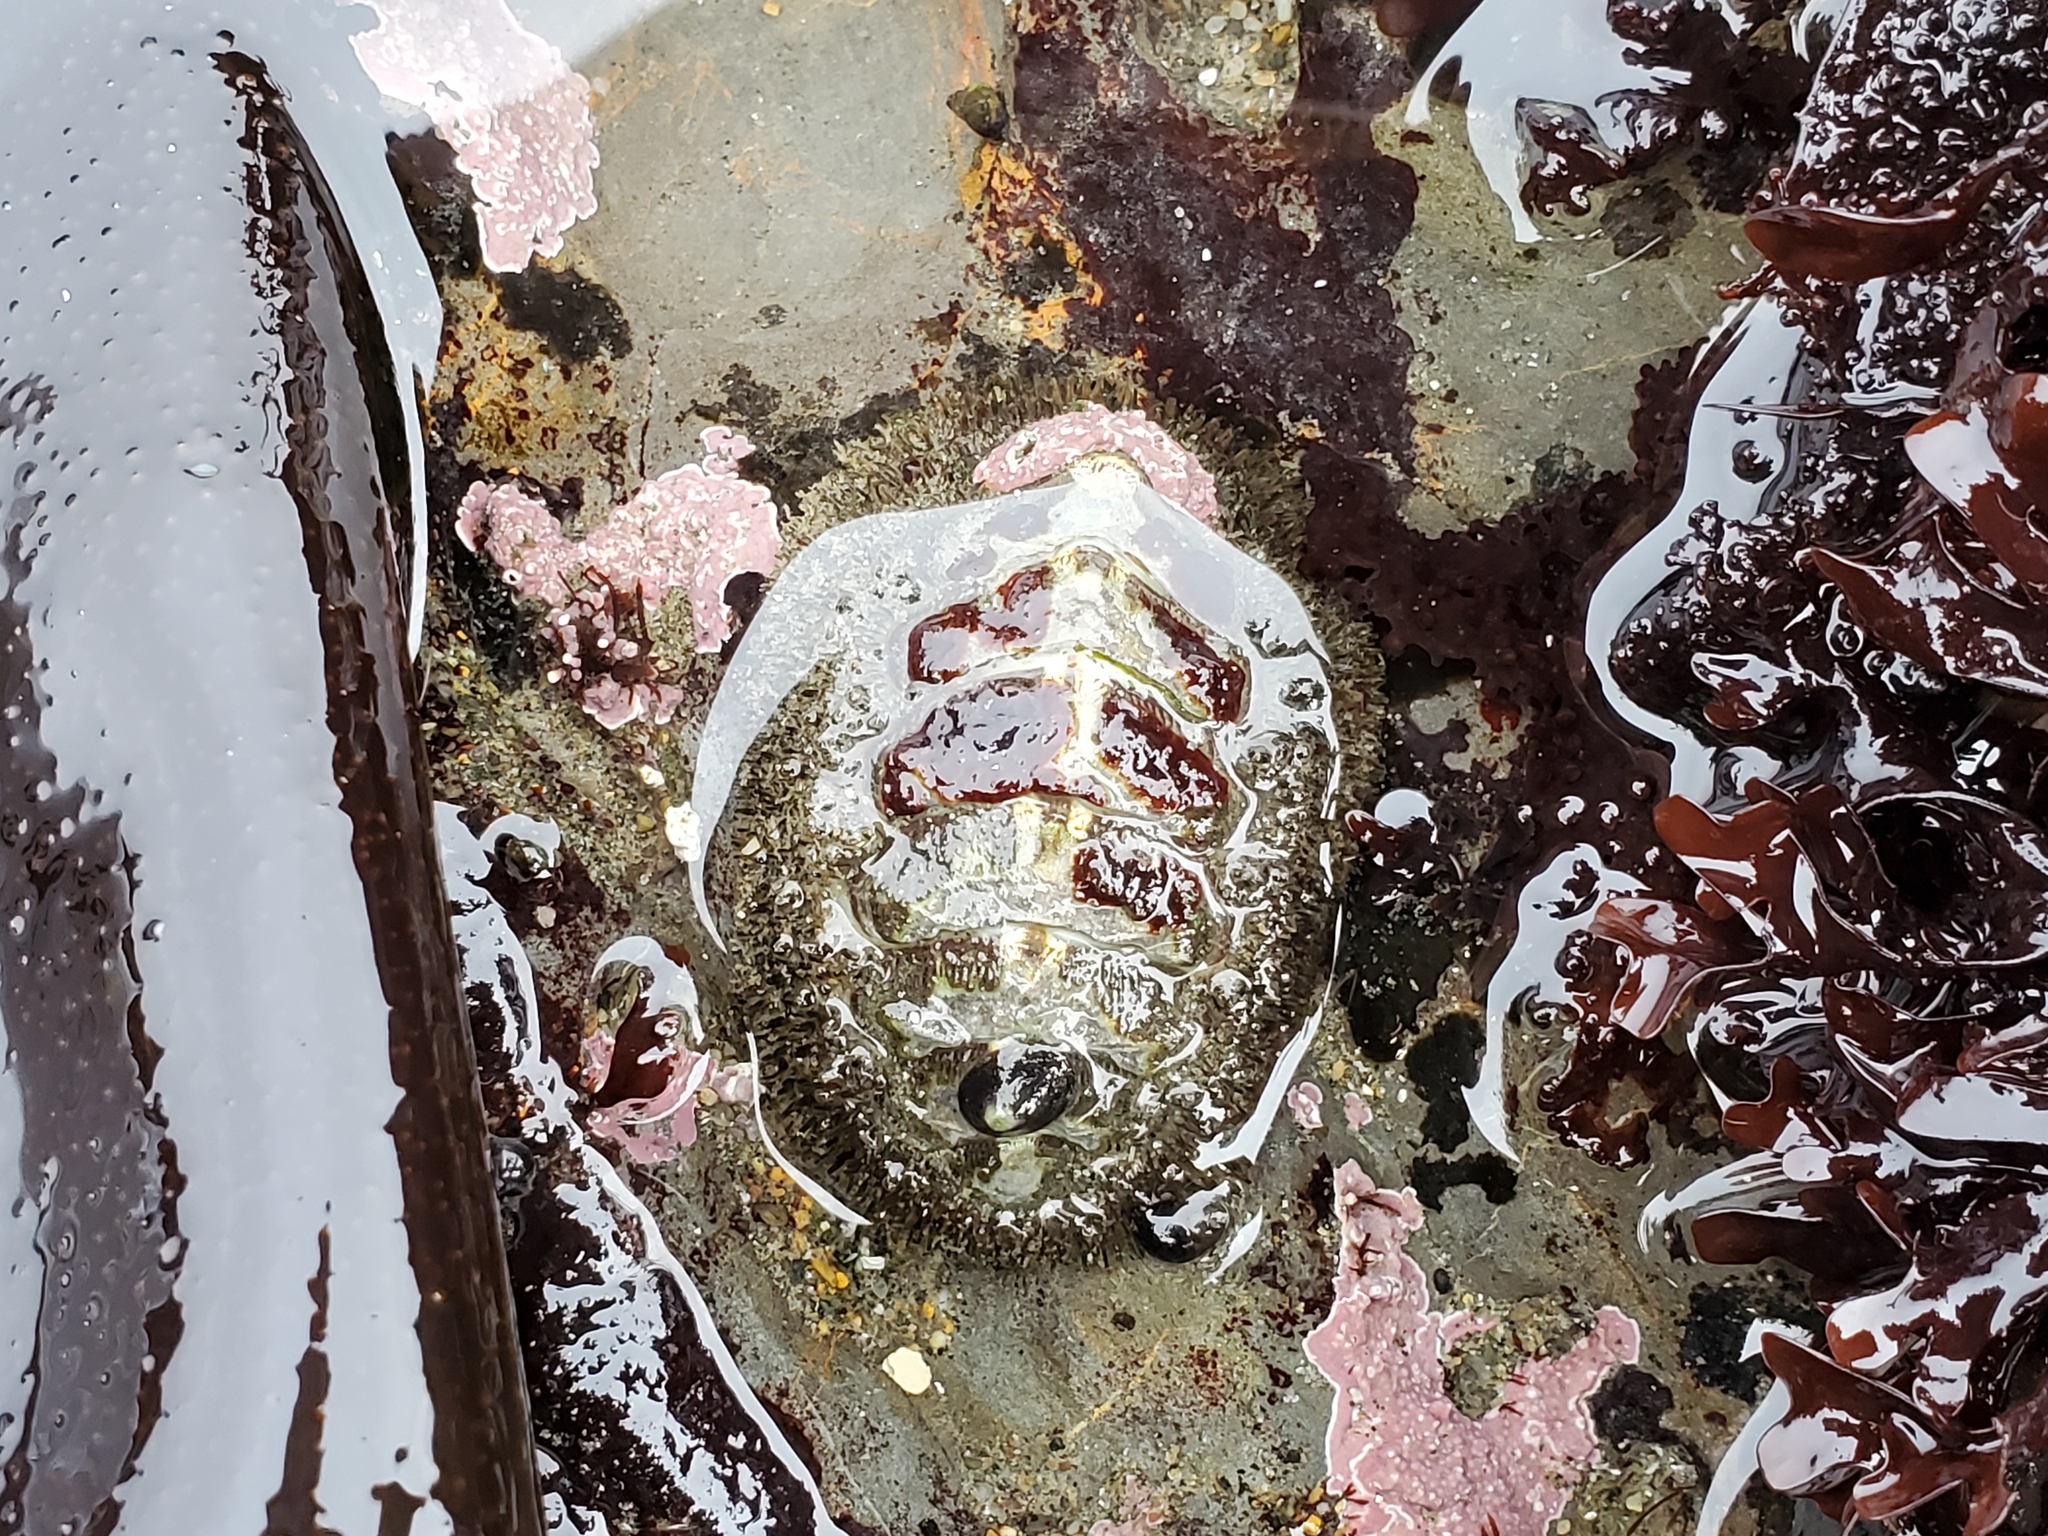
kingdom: Animalia
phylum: Mollusca
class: Polyplacophora
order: Chitonida
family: Mopaliidae
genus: Mopalia
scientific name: Mopalia muscosa
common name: Mossy chiton
